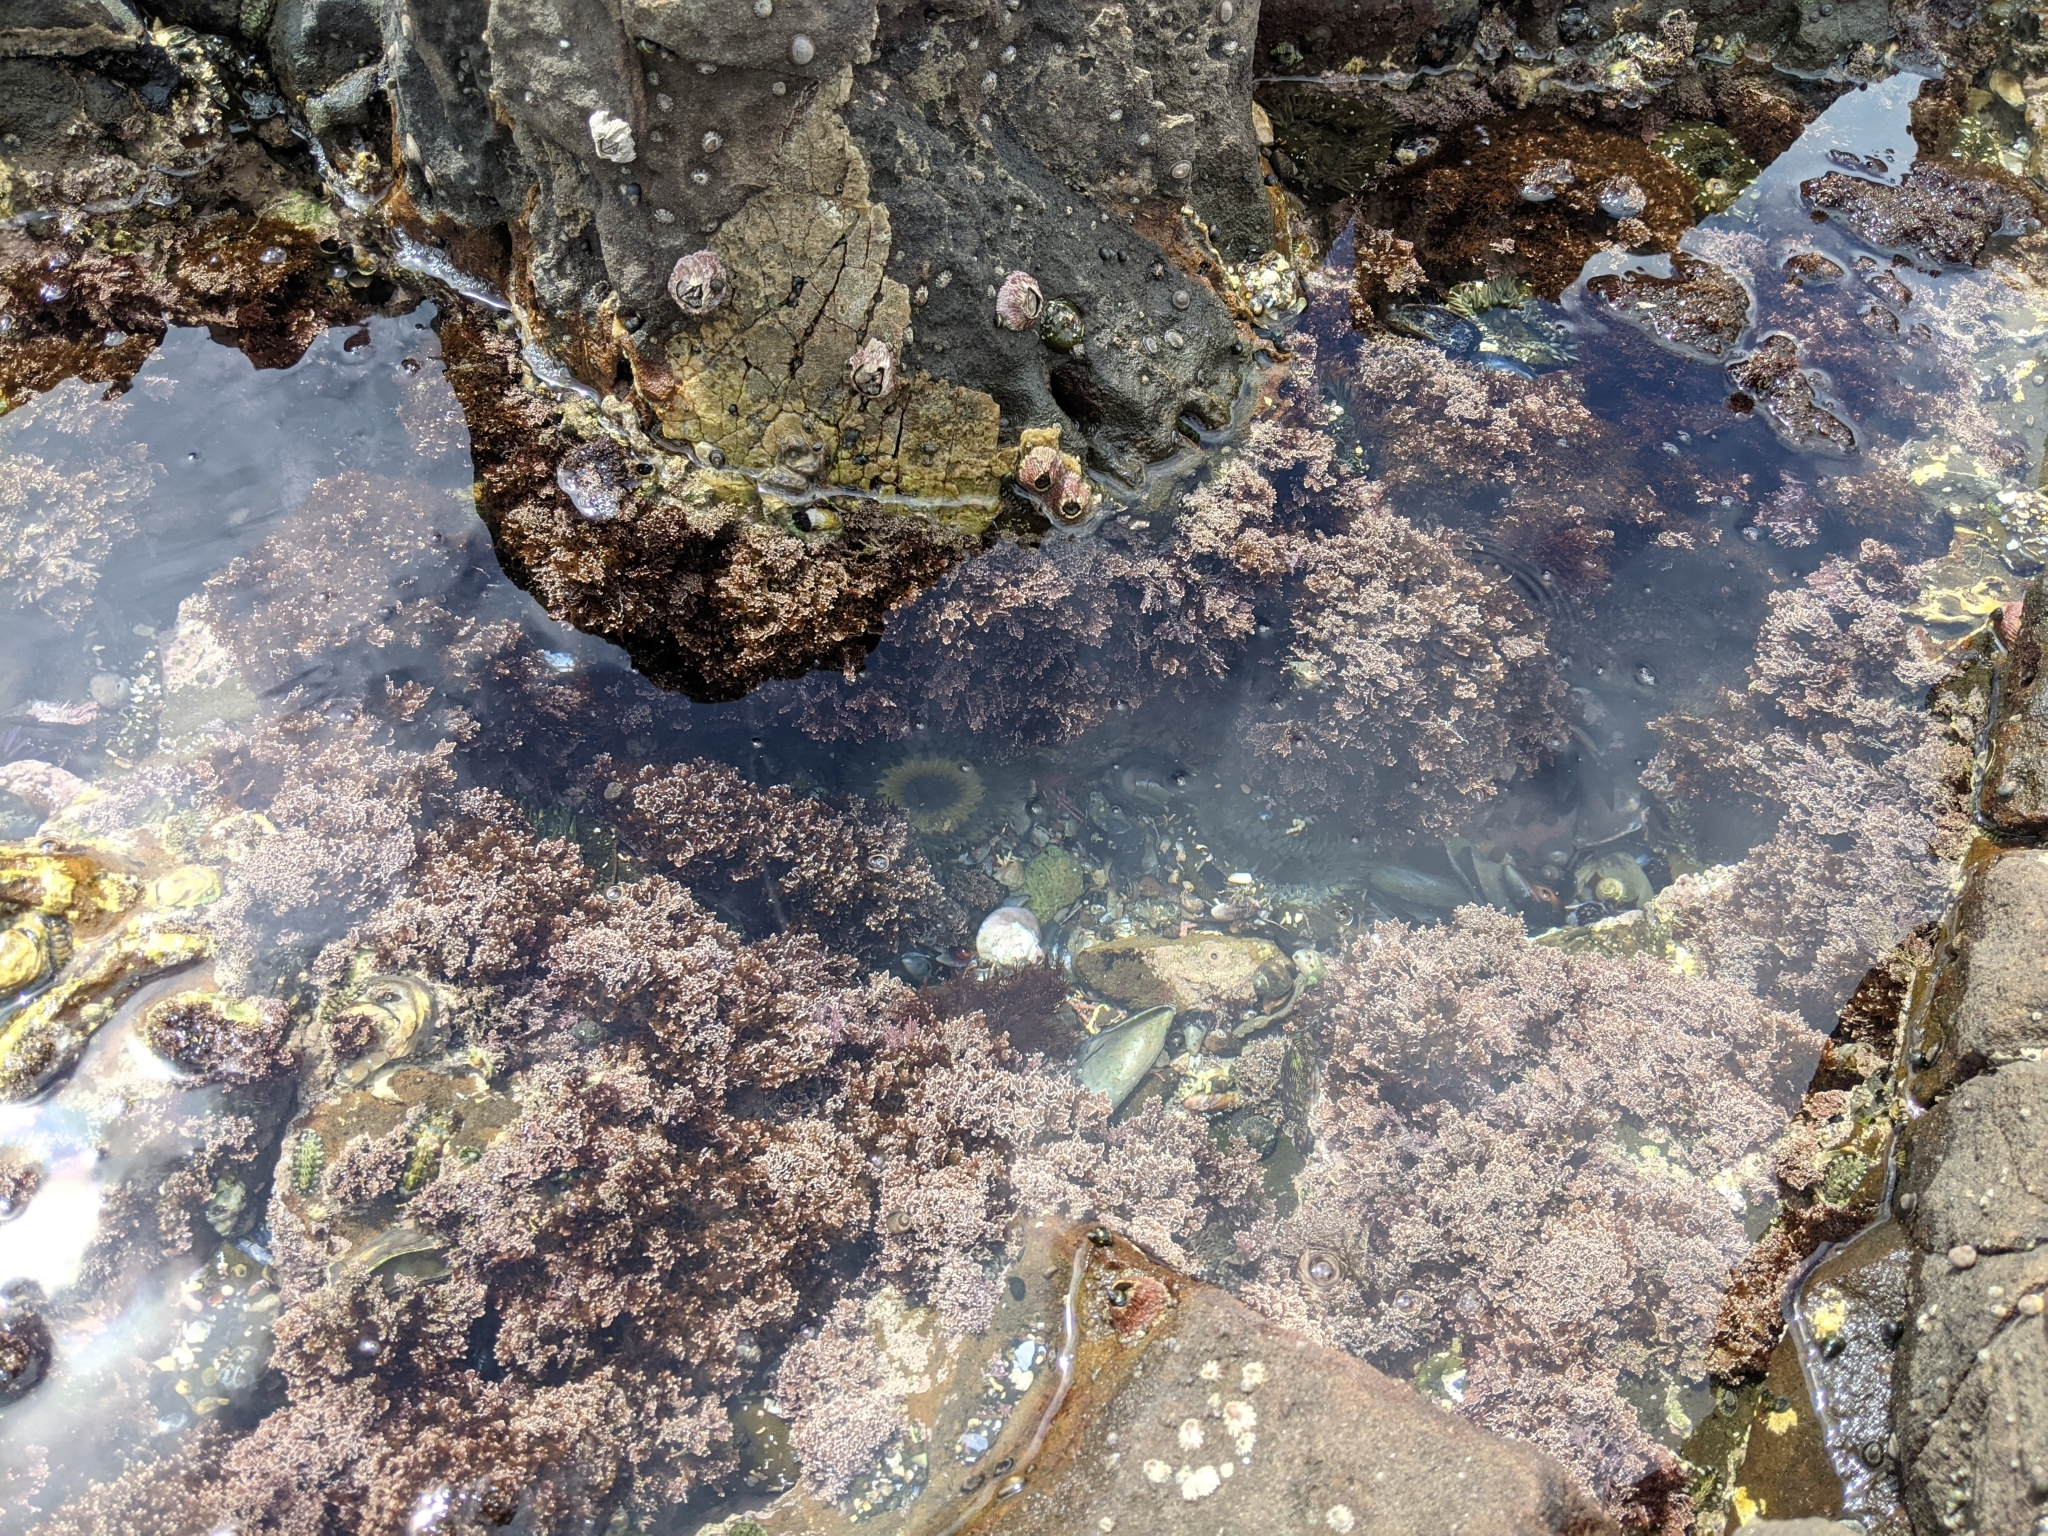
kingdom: Animalia
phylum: Cnidaria
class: Anthozoa
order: Actiniaria
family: Actiniidae
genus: Anthopleura
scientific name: Anthopleura sola
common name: Sun anemone
